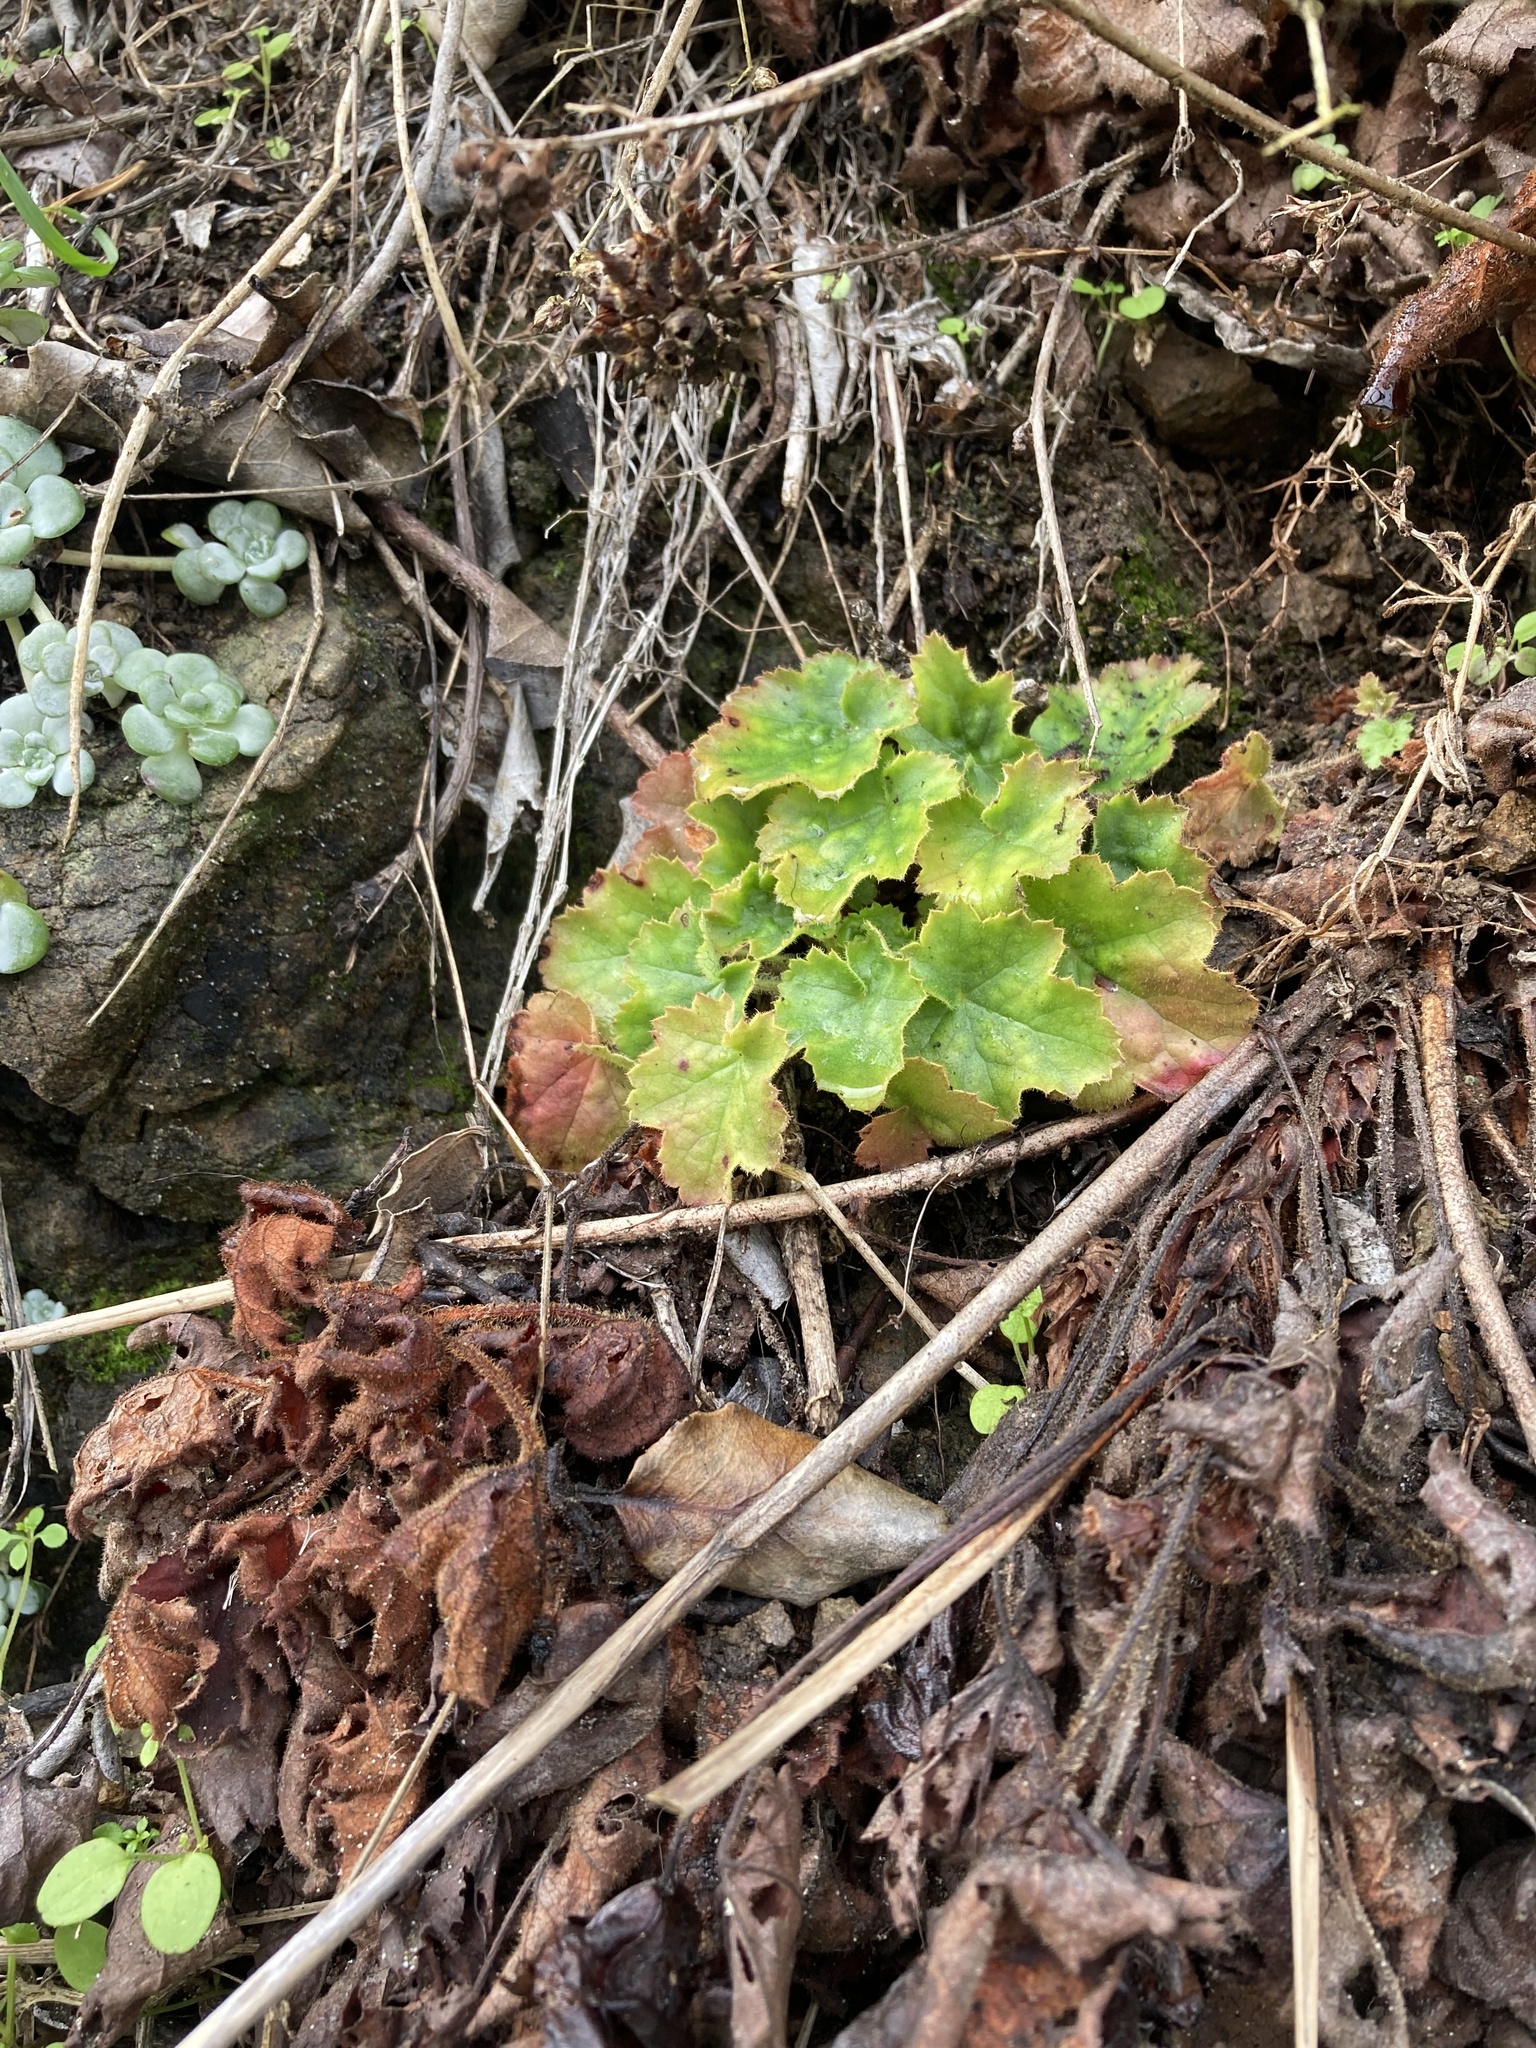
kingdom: Plantae
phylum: Tracheophyta
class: Magnoliopsida
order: Saxifragales
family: Saxifragaceae
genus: Heuchera
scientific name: Heuchera micrantha
